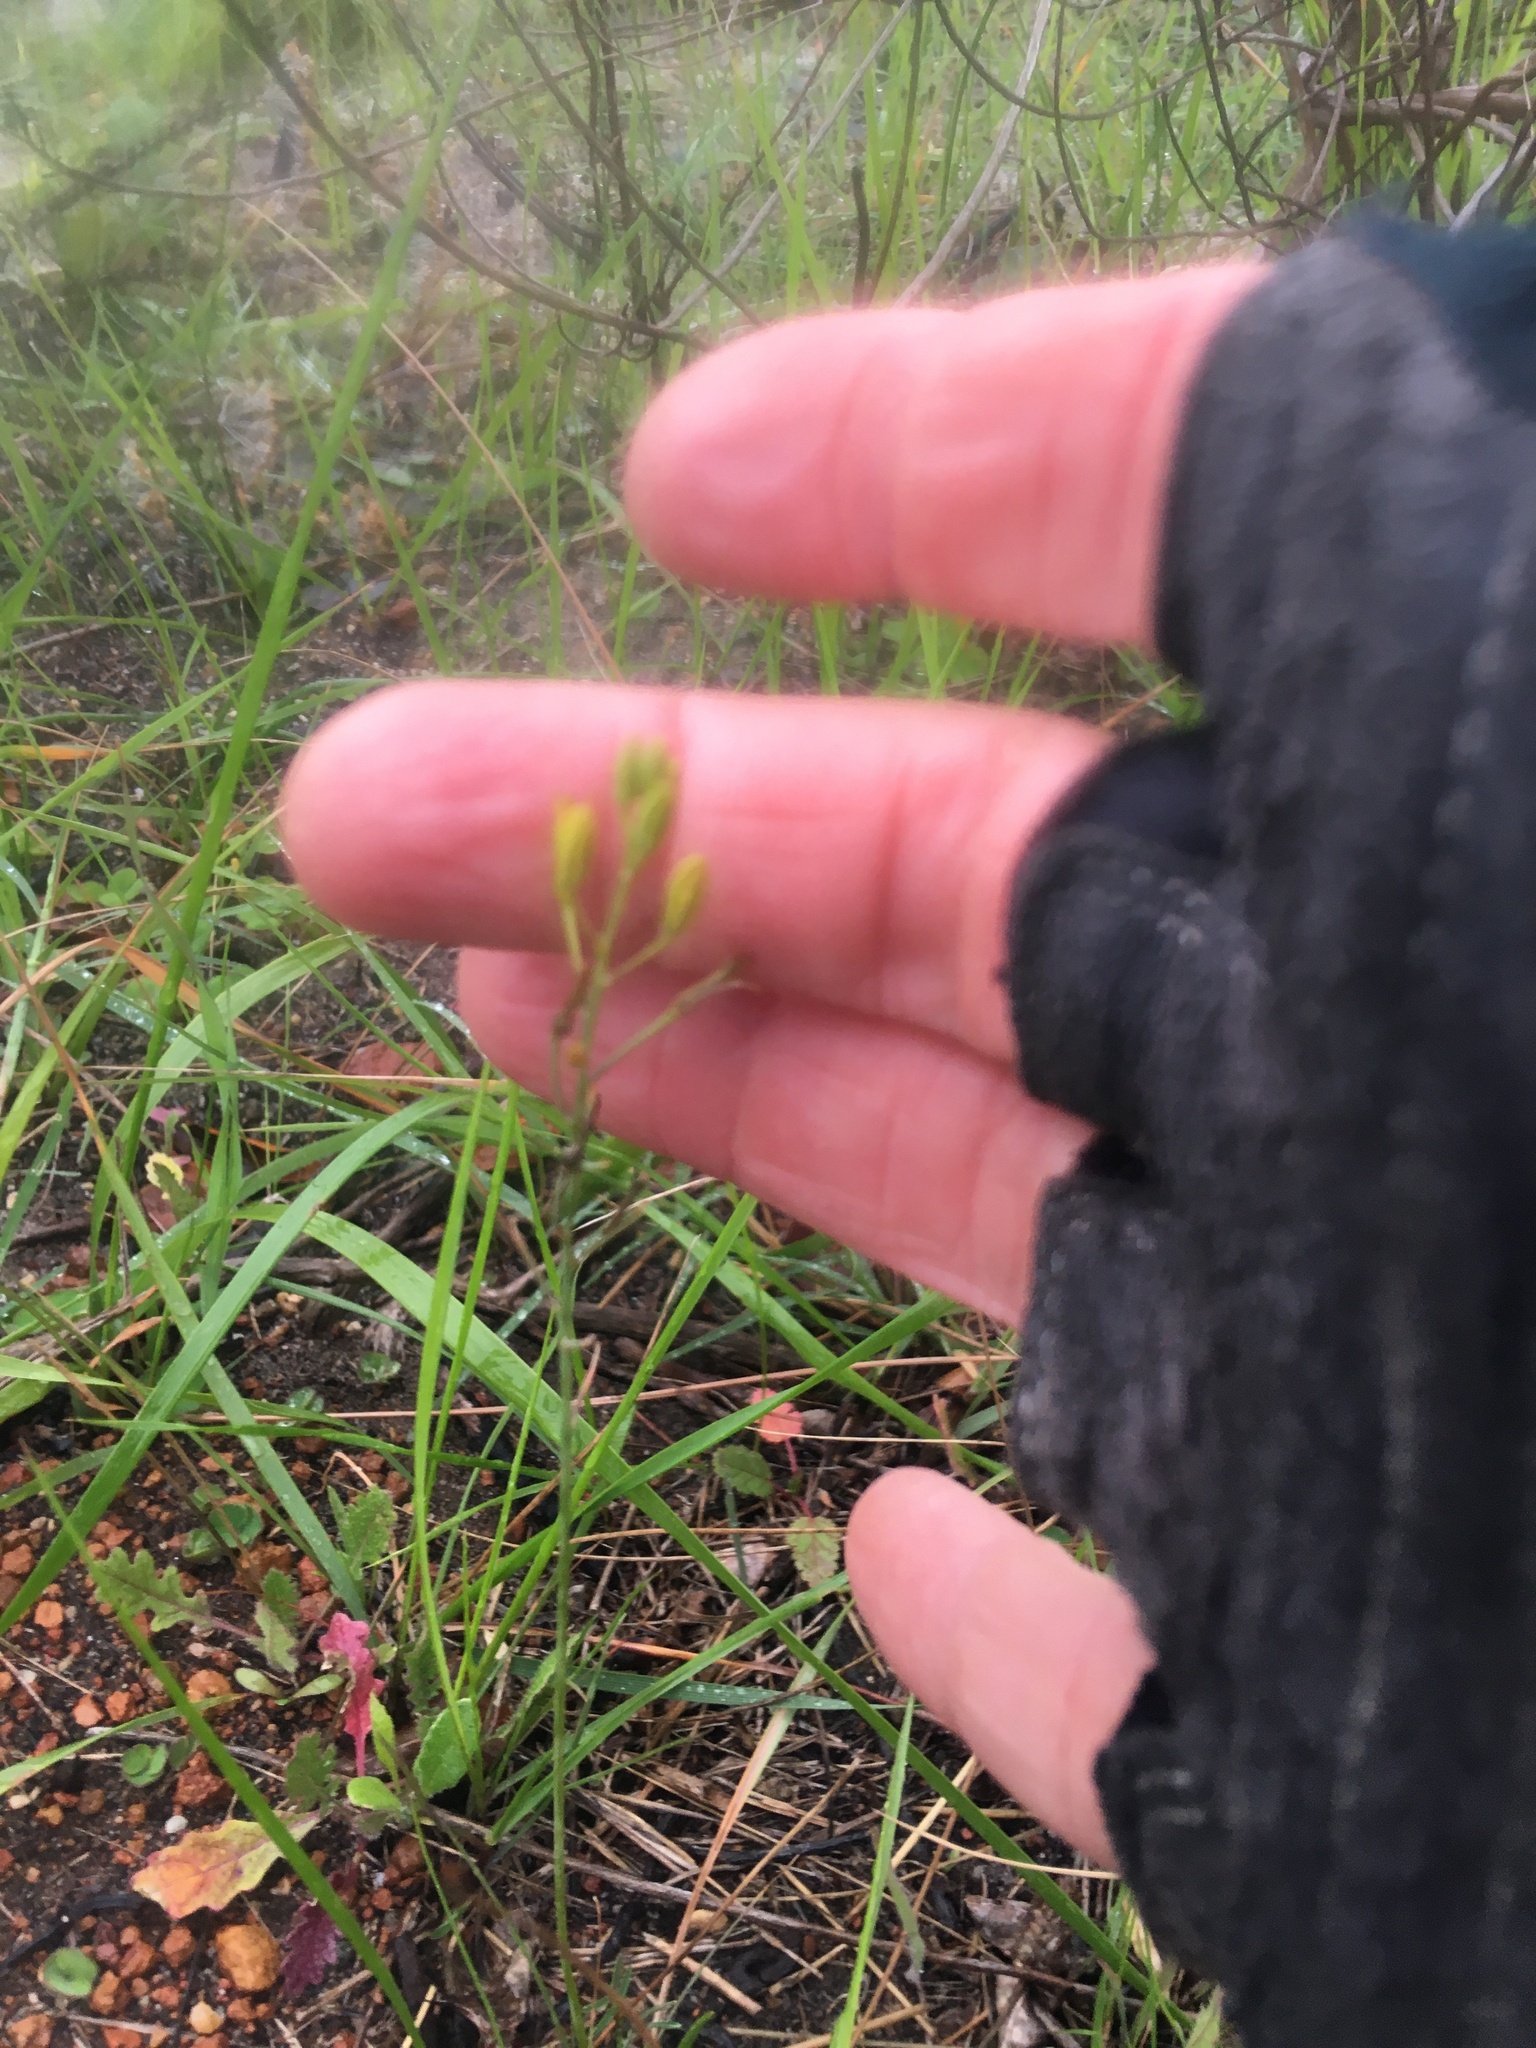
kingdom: Plantae
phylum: Tracheophyta
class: Liliopsida
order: Asparagales
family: Asphodelaceae
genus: Bulbine
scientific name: Bulbine favosa
